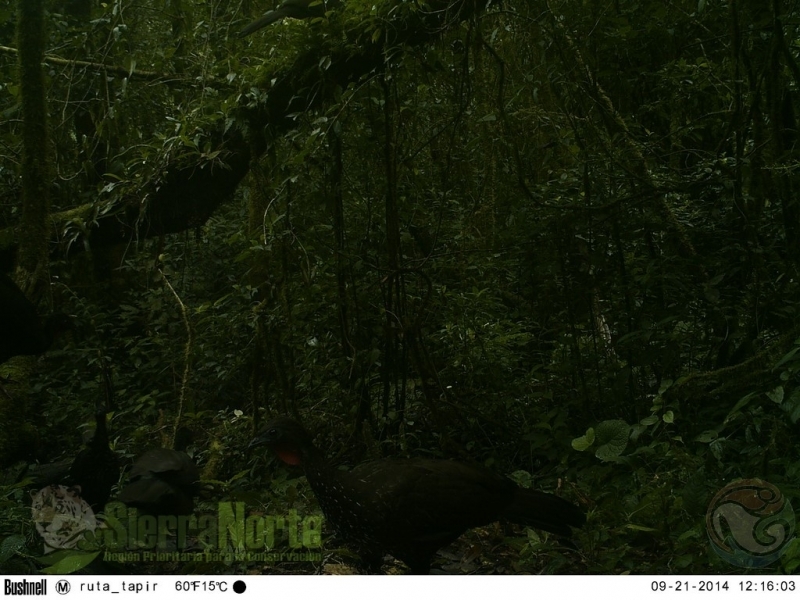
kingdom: Animalia
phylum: Chordata
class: Aves
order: Galliformes
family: Cracidae
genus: Penelope
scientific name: Penelope purpurascens
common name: Crested guan
